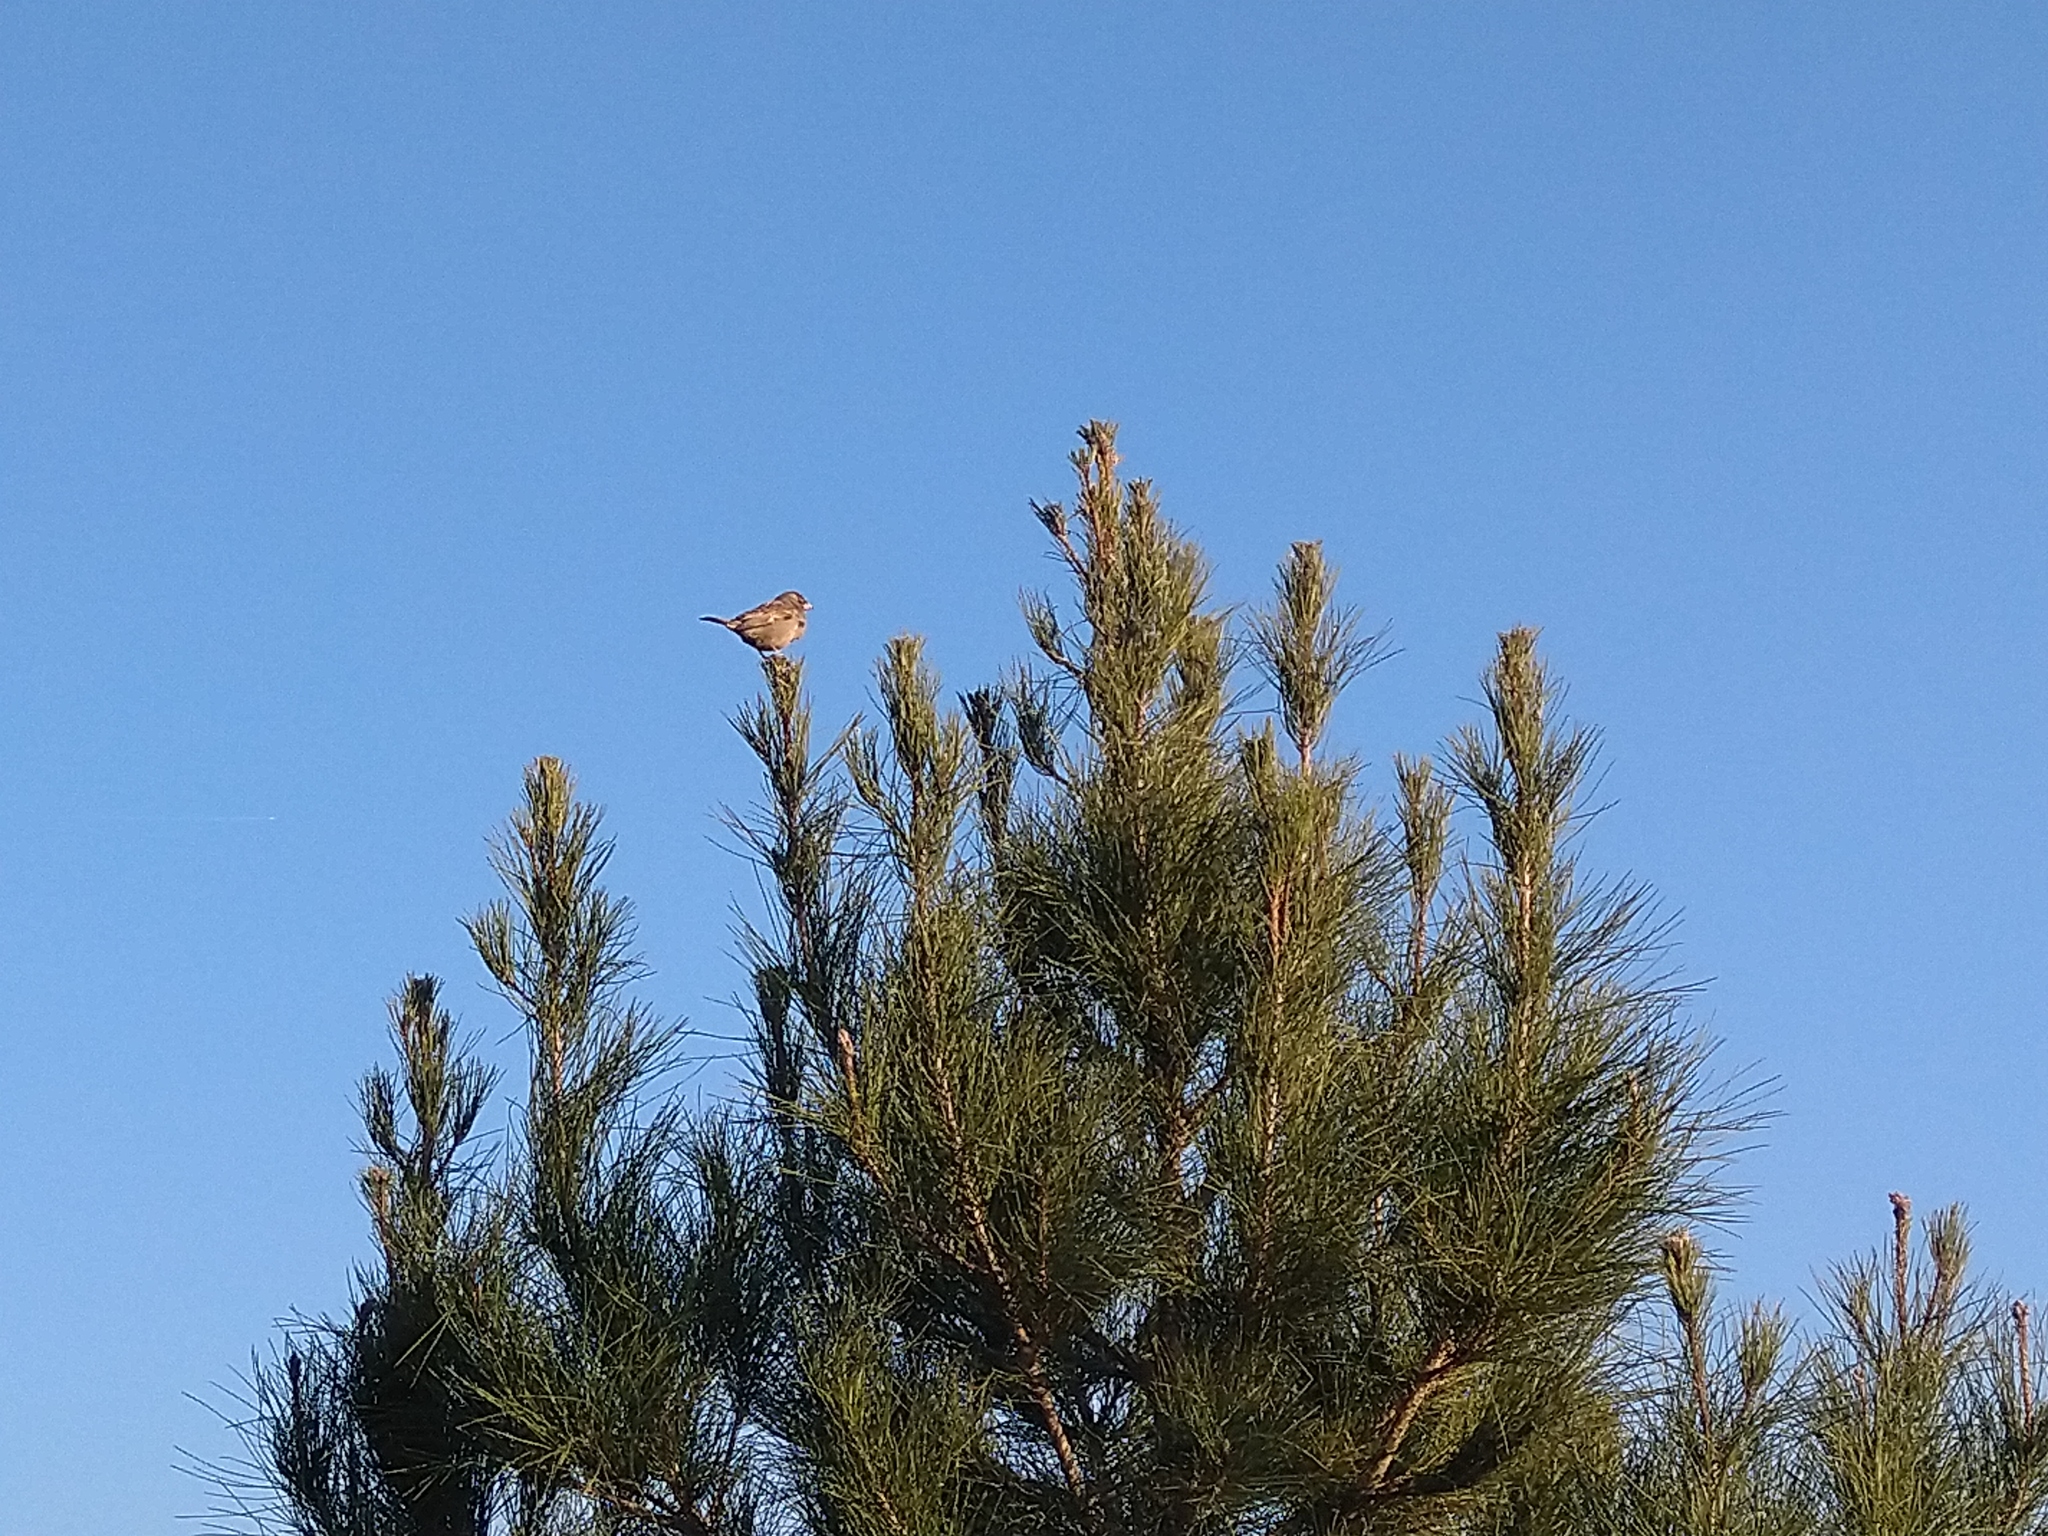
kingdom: Animalia
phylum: Chordata
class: Aves
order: Passeriformes
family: Passeridae
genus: Passer
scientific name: Passer domesticus
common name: House sparrow
